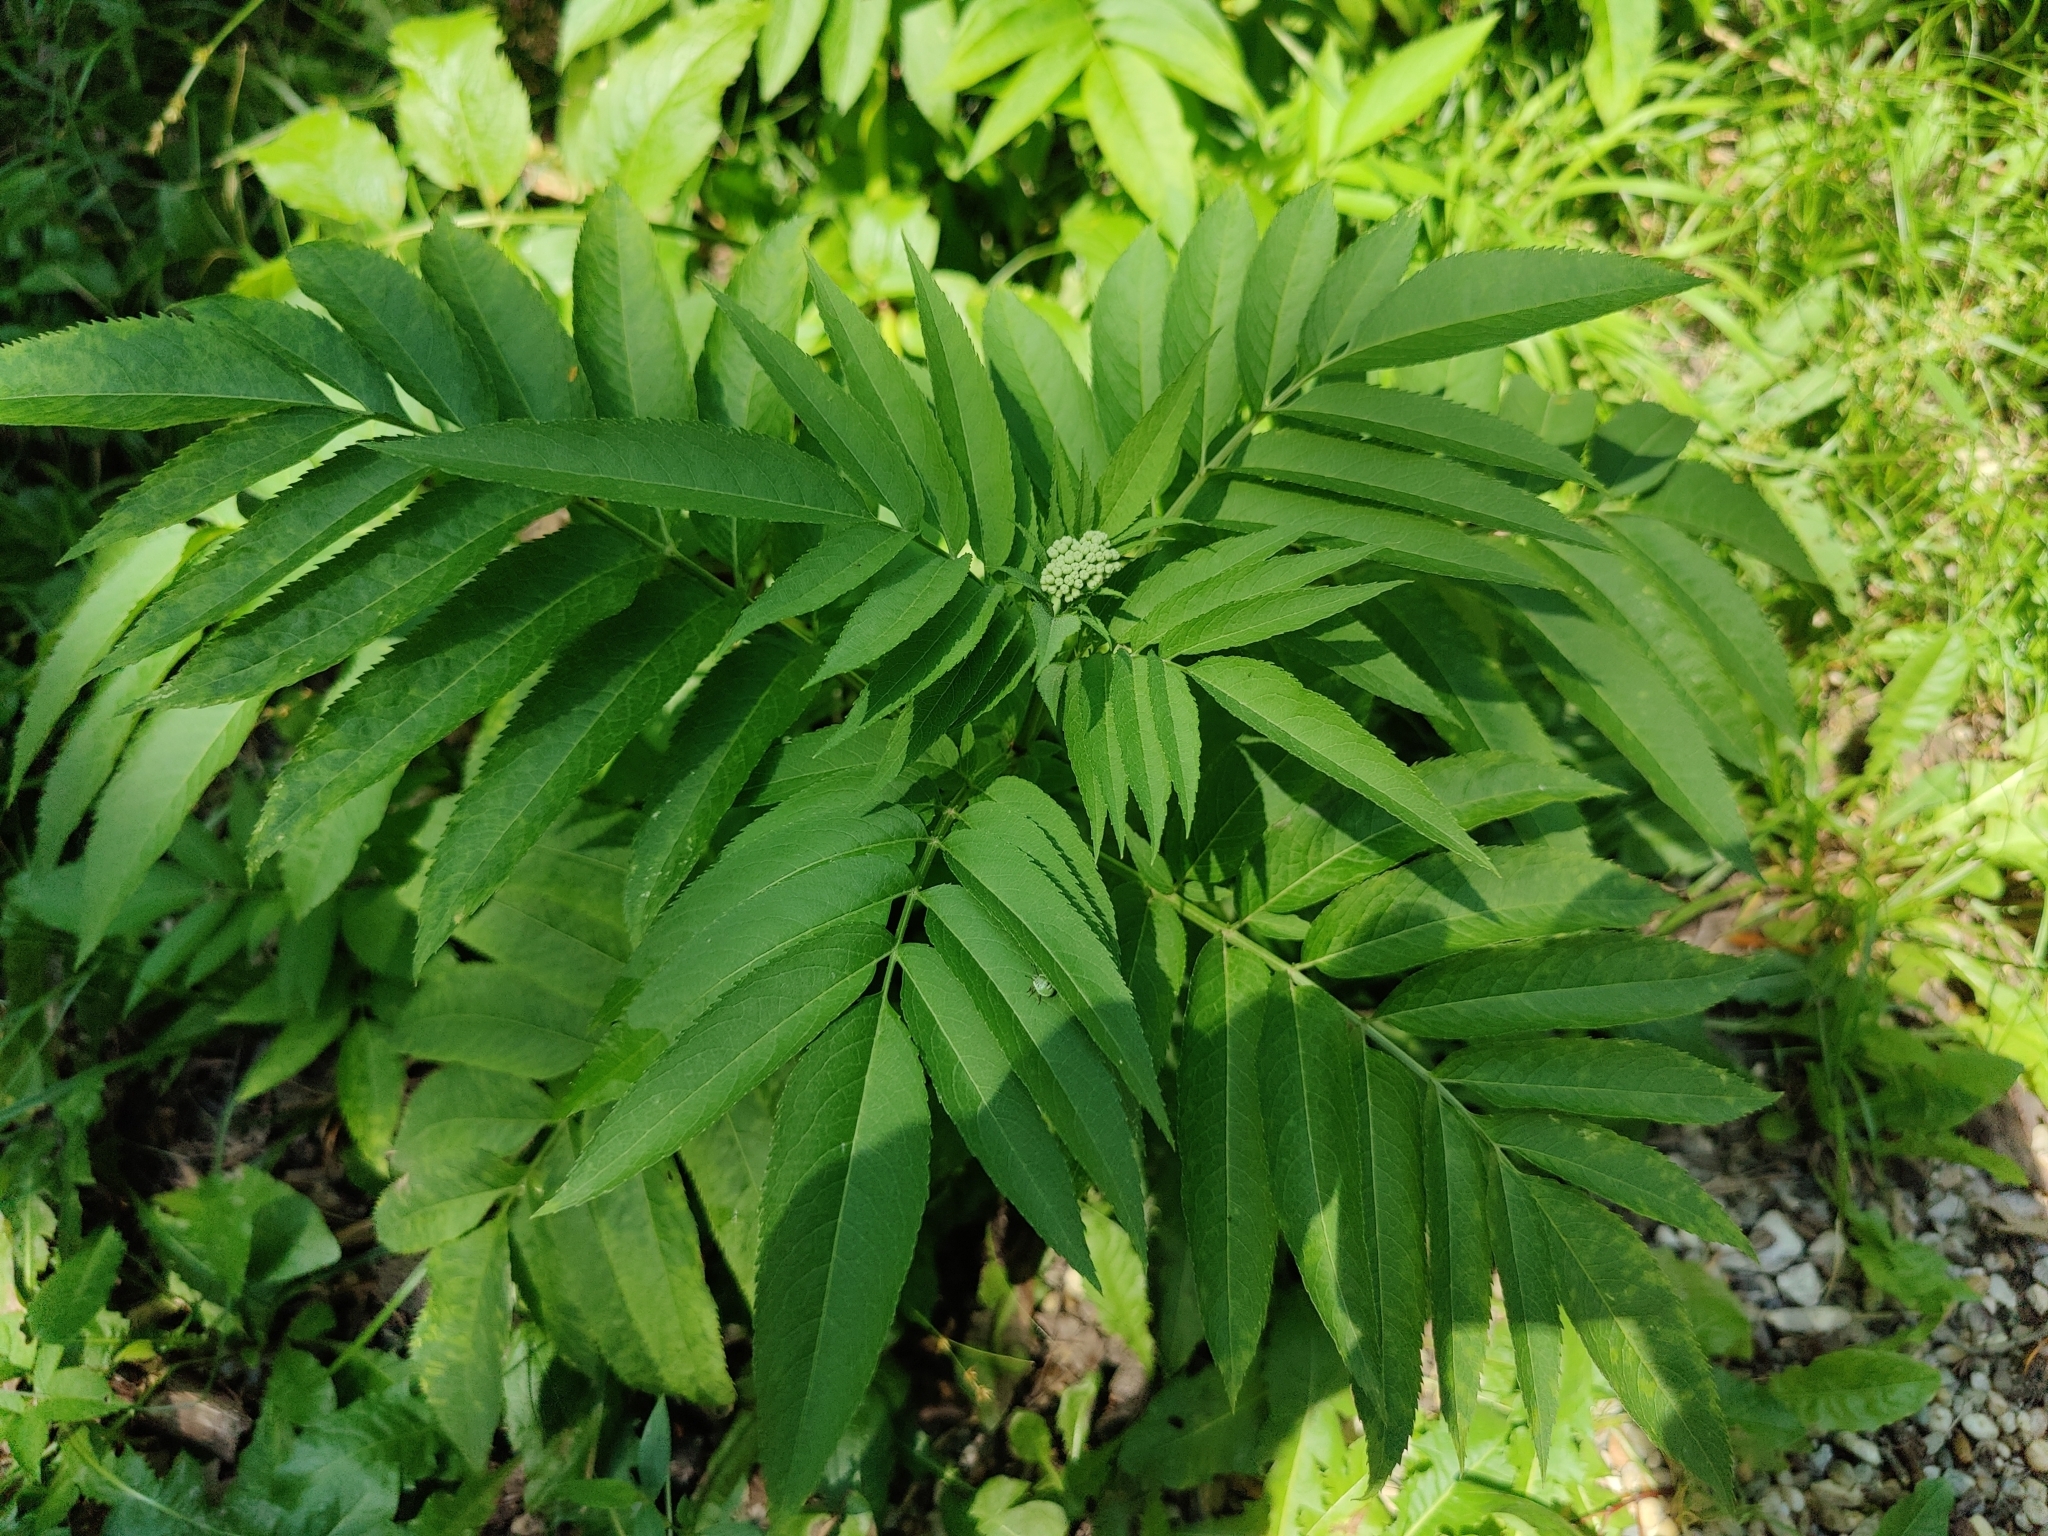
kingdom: Plantae
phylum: Tracheophyta
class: Magnoliopsida
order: Dipsacales
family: Viburnaceae
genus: Sambucus
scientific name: Sambucus ebulus
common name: Dwarf elder
